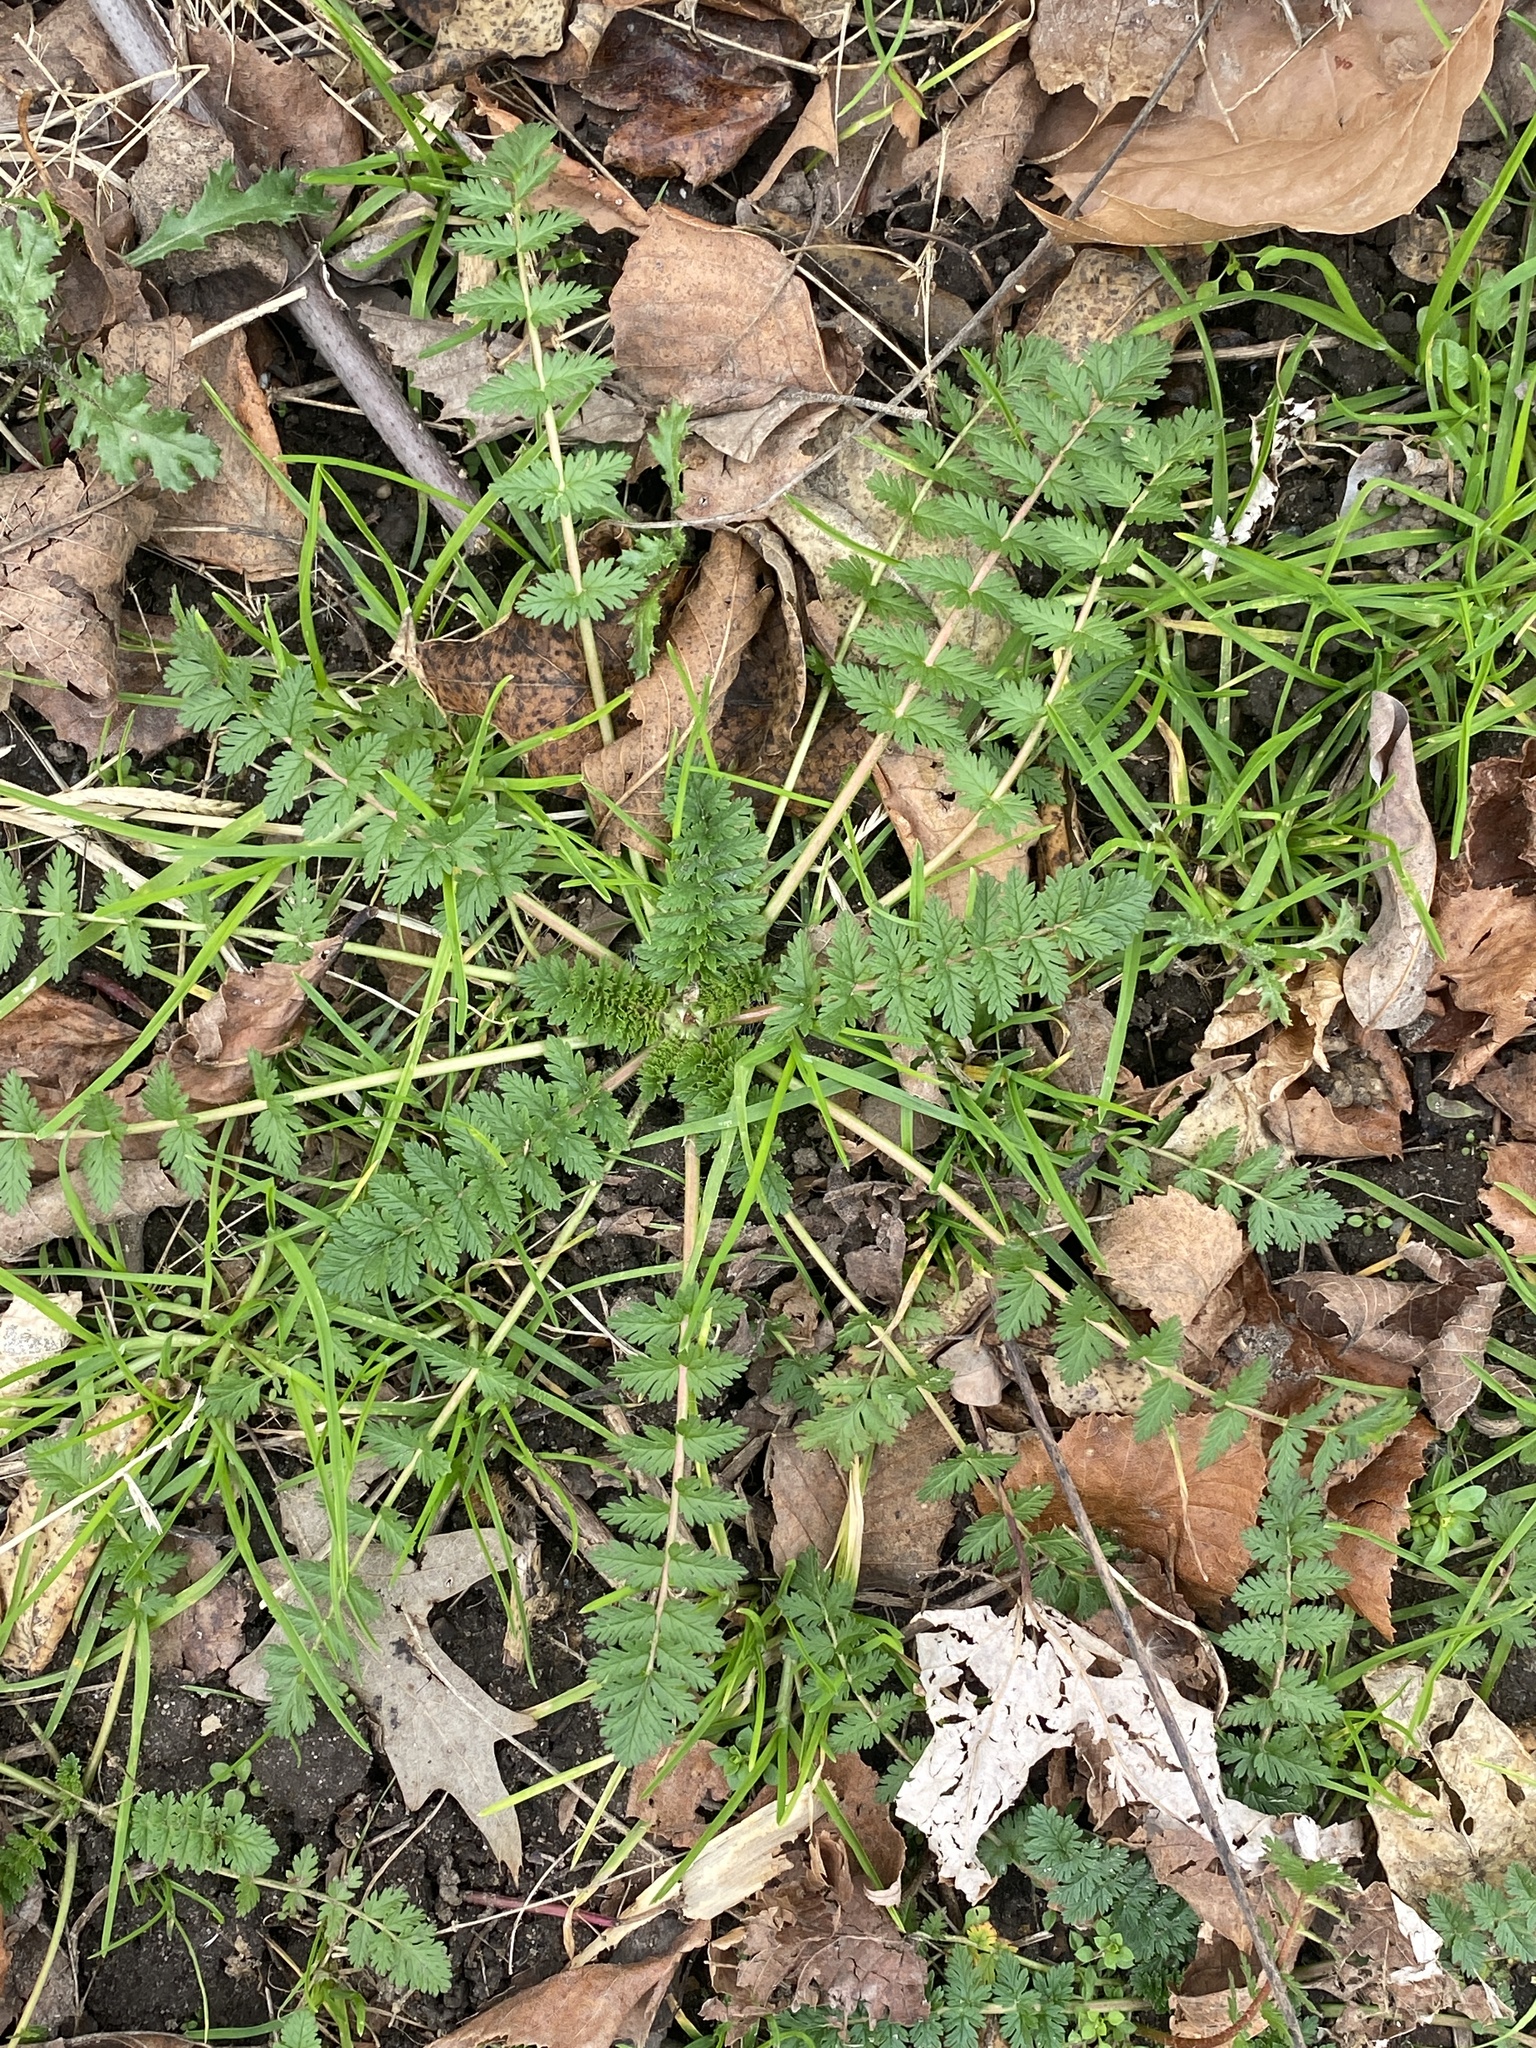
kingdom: Plantae
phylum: Tracheophyta
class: Magnoliopsida
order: Geraniales
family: Geraniaceae
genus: Erodium
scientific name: Erodium cicutarium
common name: Common stork's-bill
